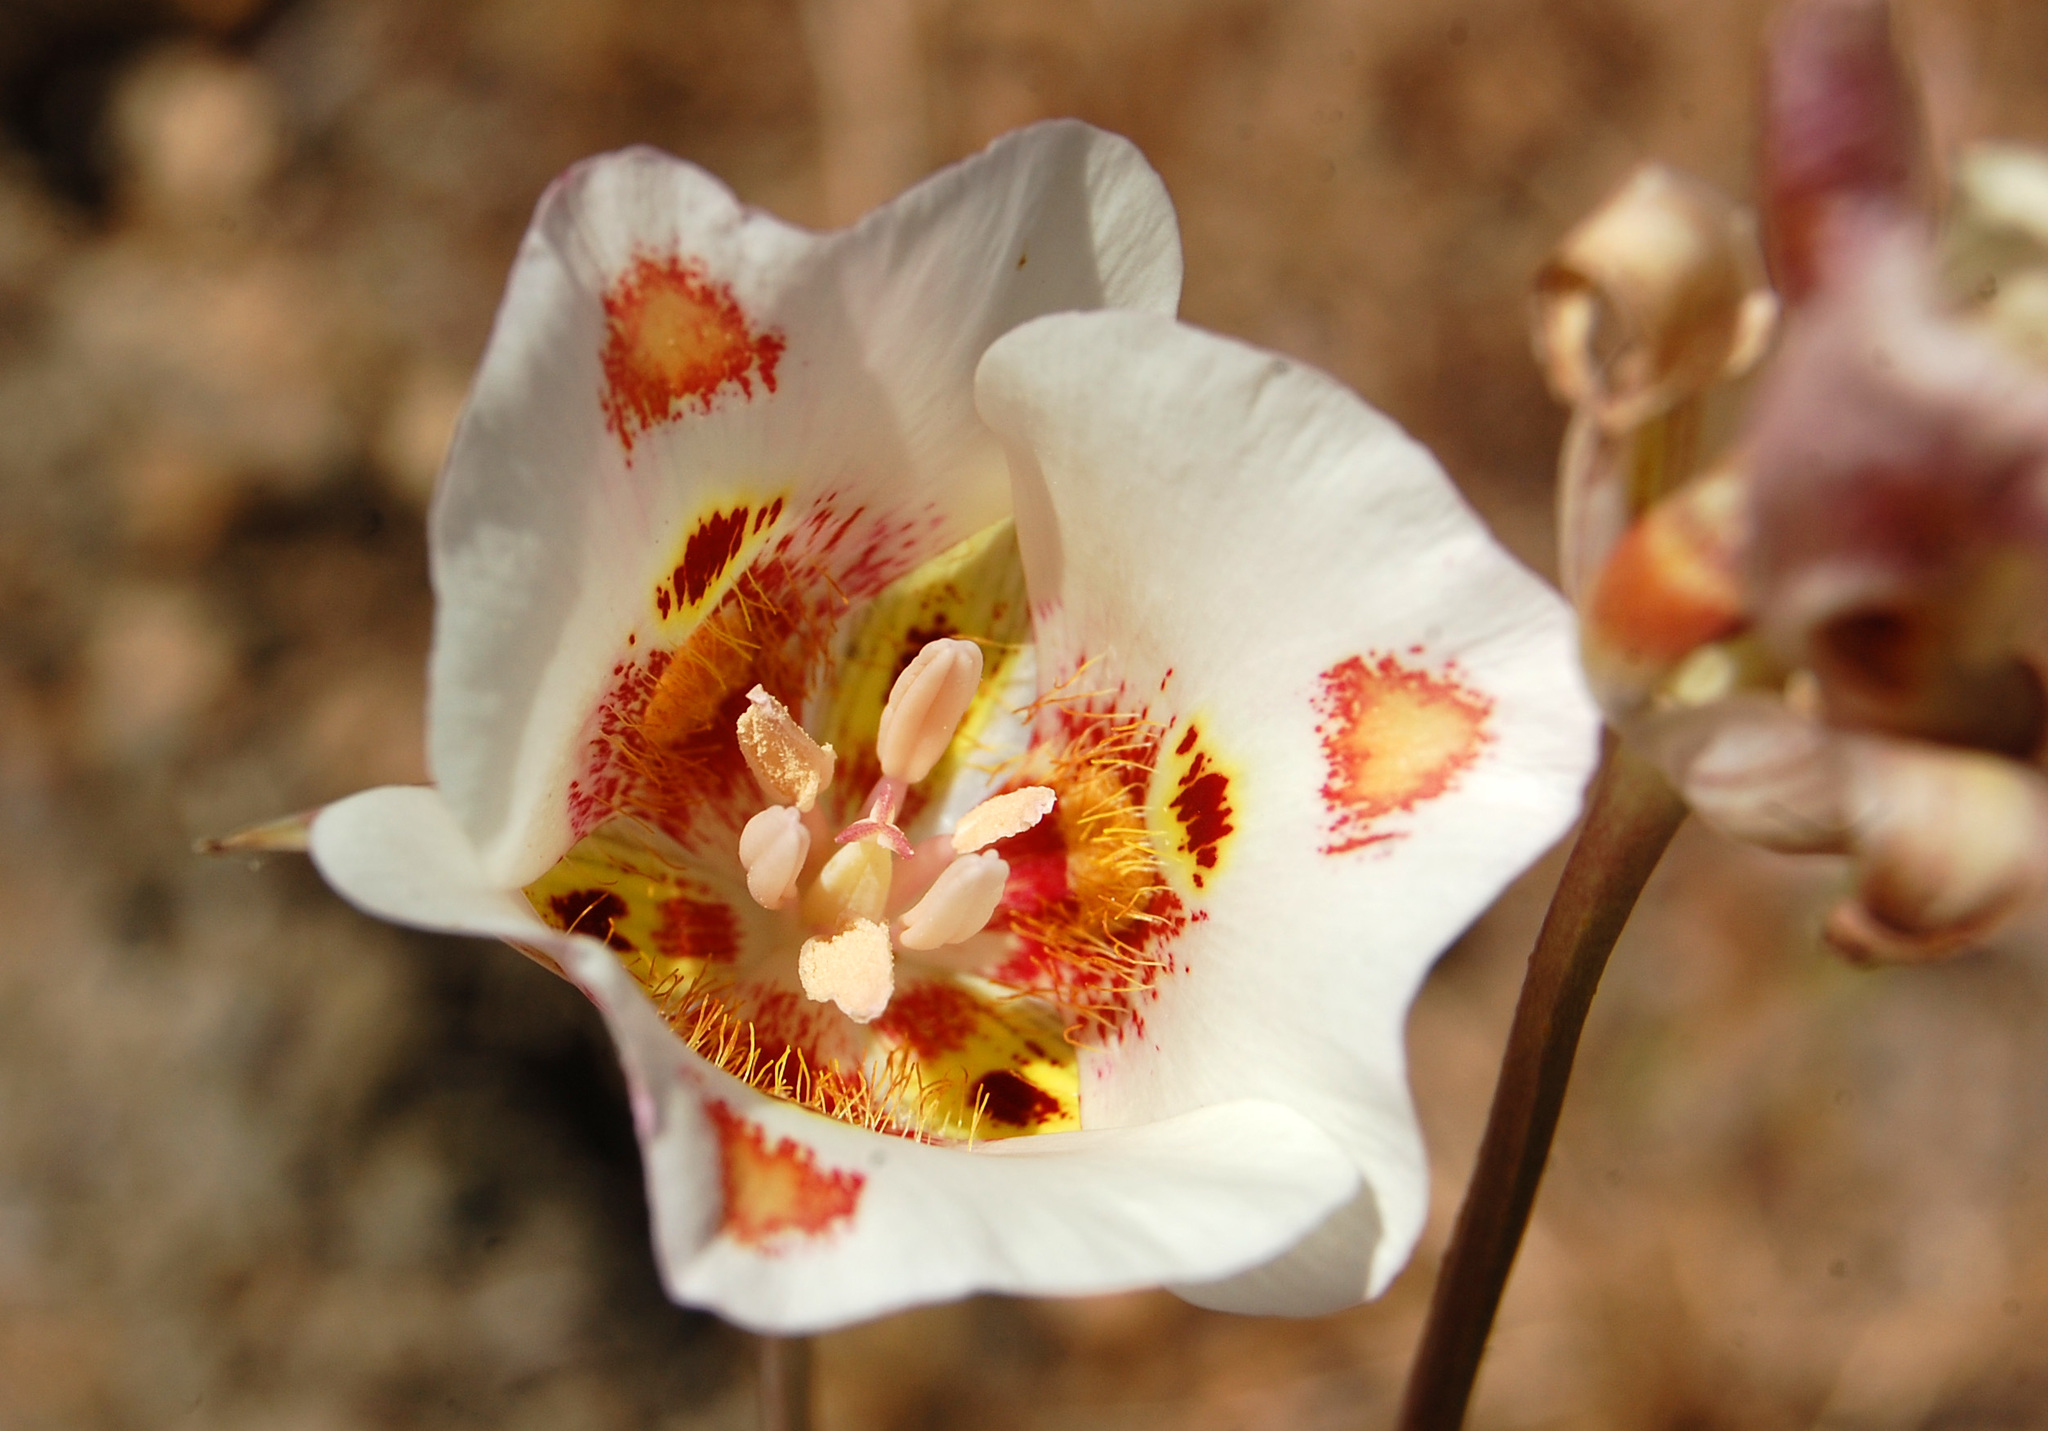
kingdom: Plantae
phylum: Tracheophyta
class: Liliopsida
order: Liliales
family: Liliaceae
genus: Calochortus
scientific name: Calochortus venustus
